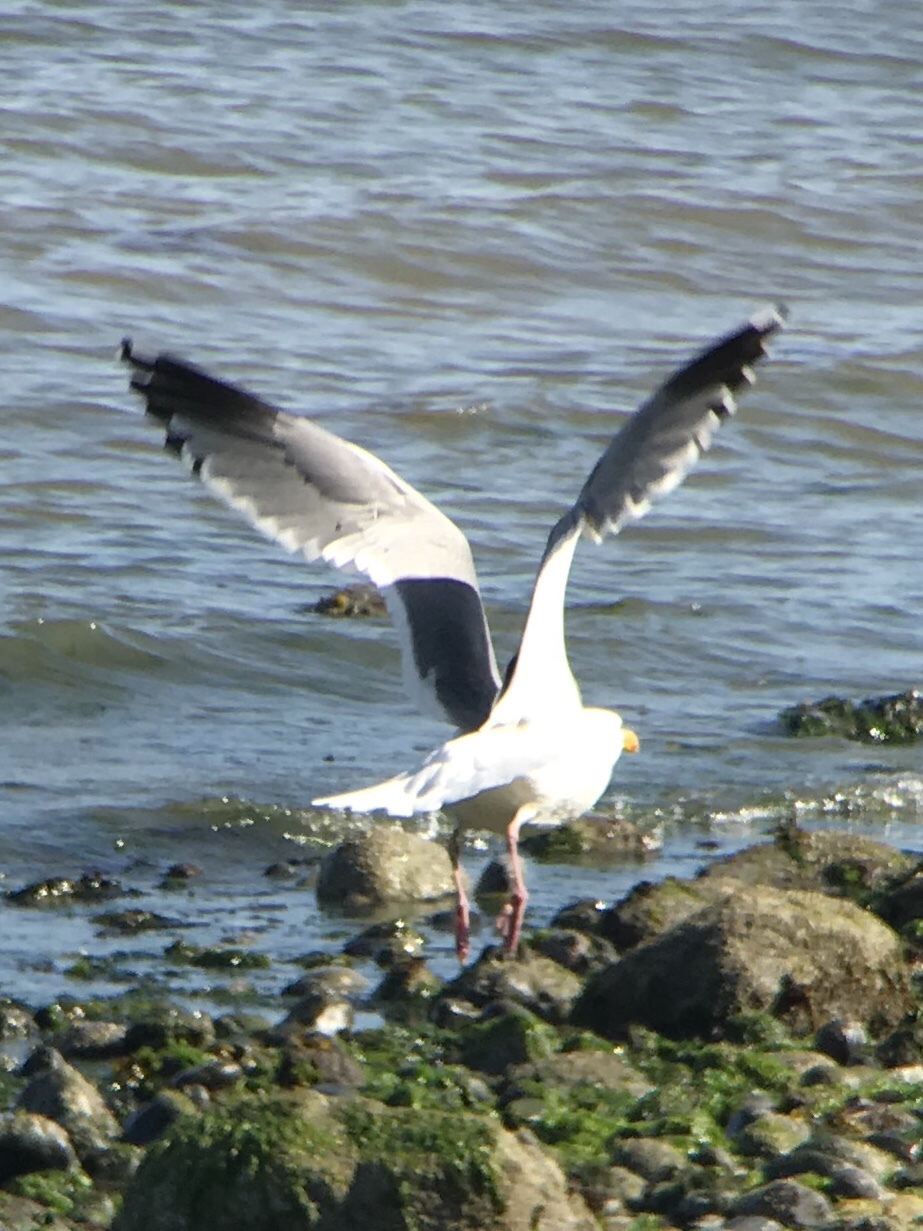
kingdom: Animalia
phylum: Chordata
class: Aves
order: Charadriiformes
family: Laridae
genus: Larus
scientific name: Larus occidentalis
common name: Western gull
